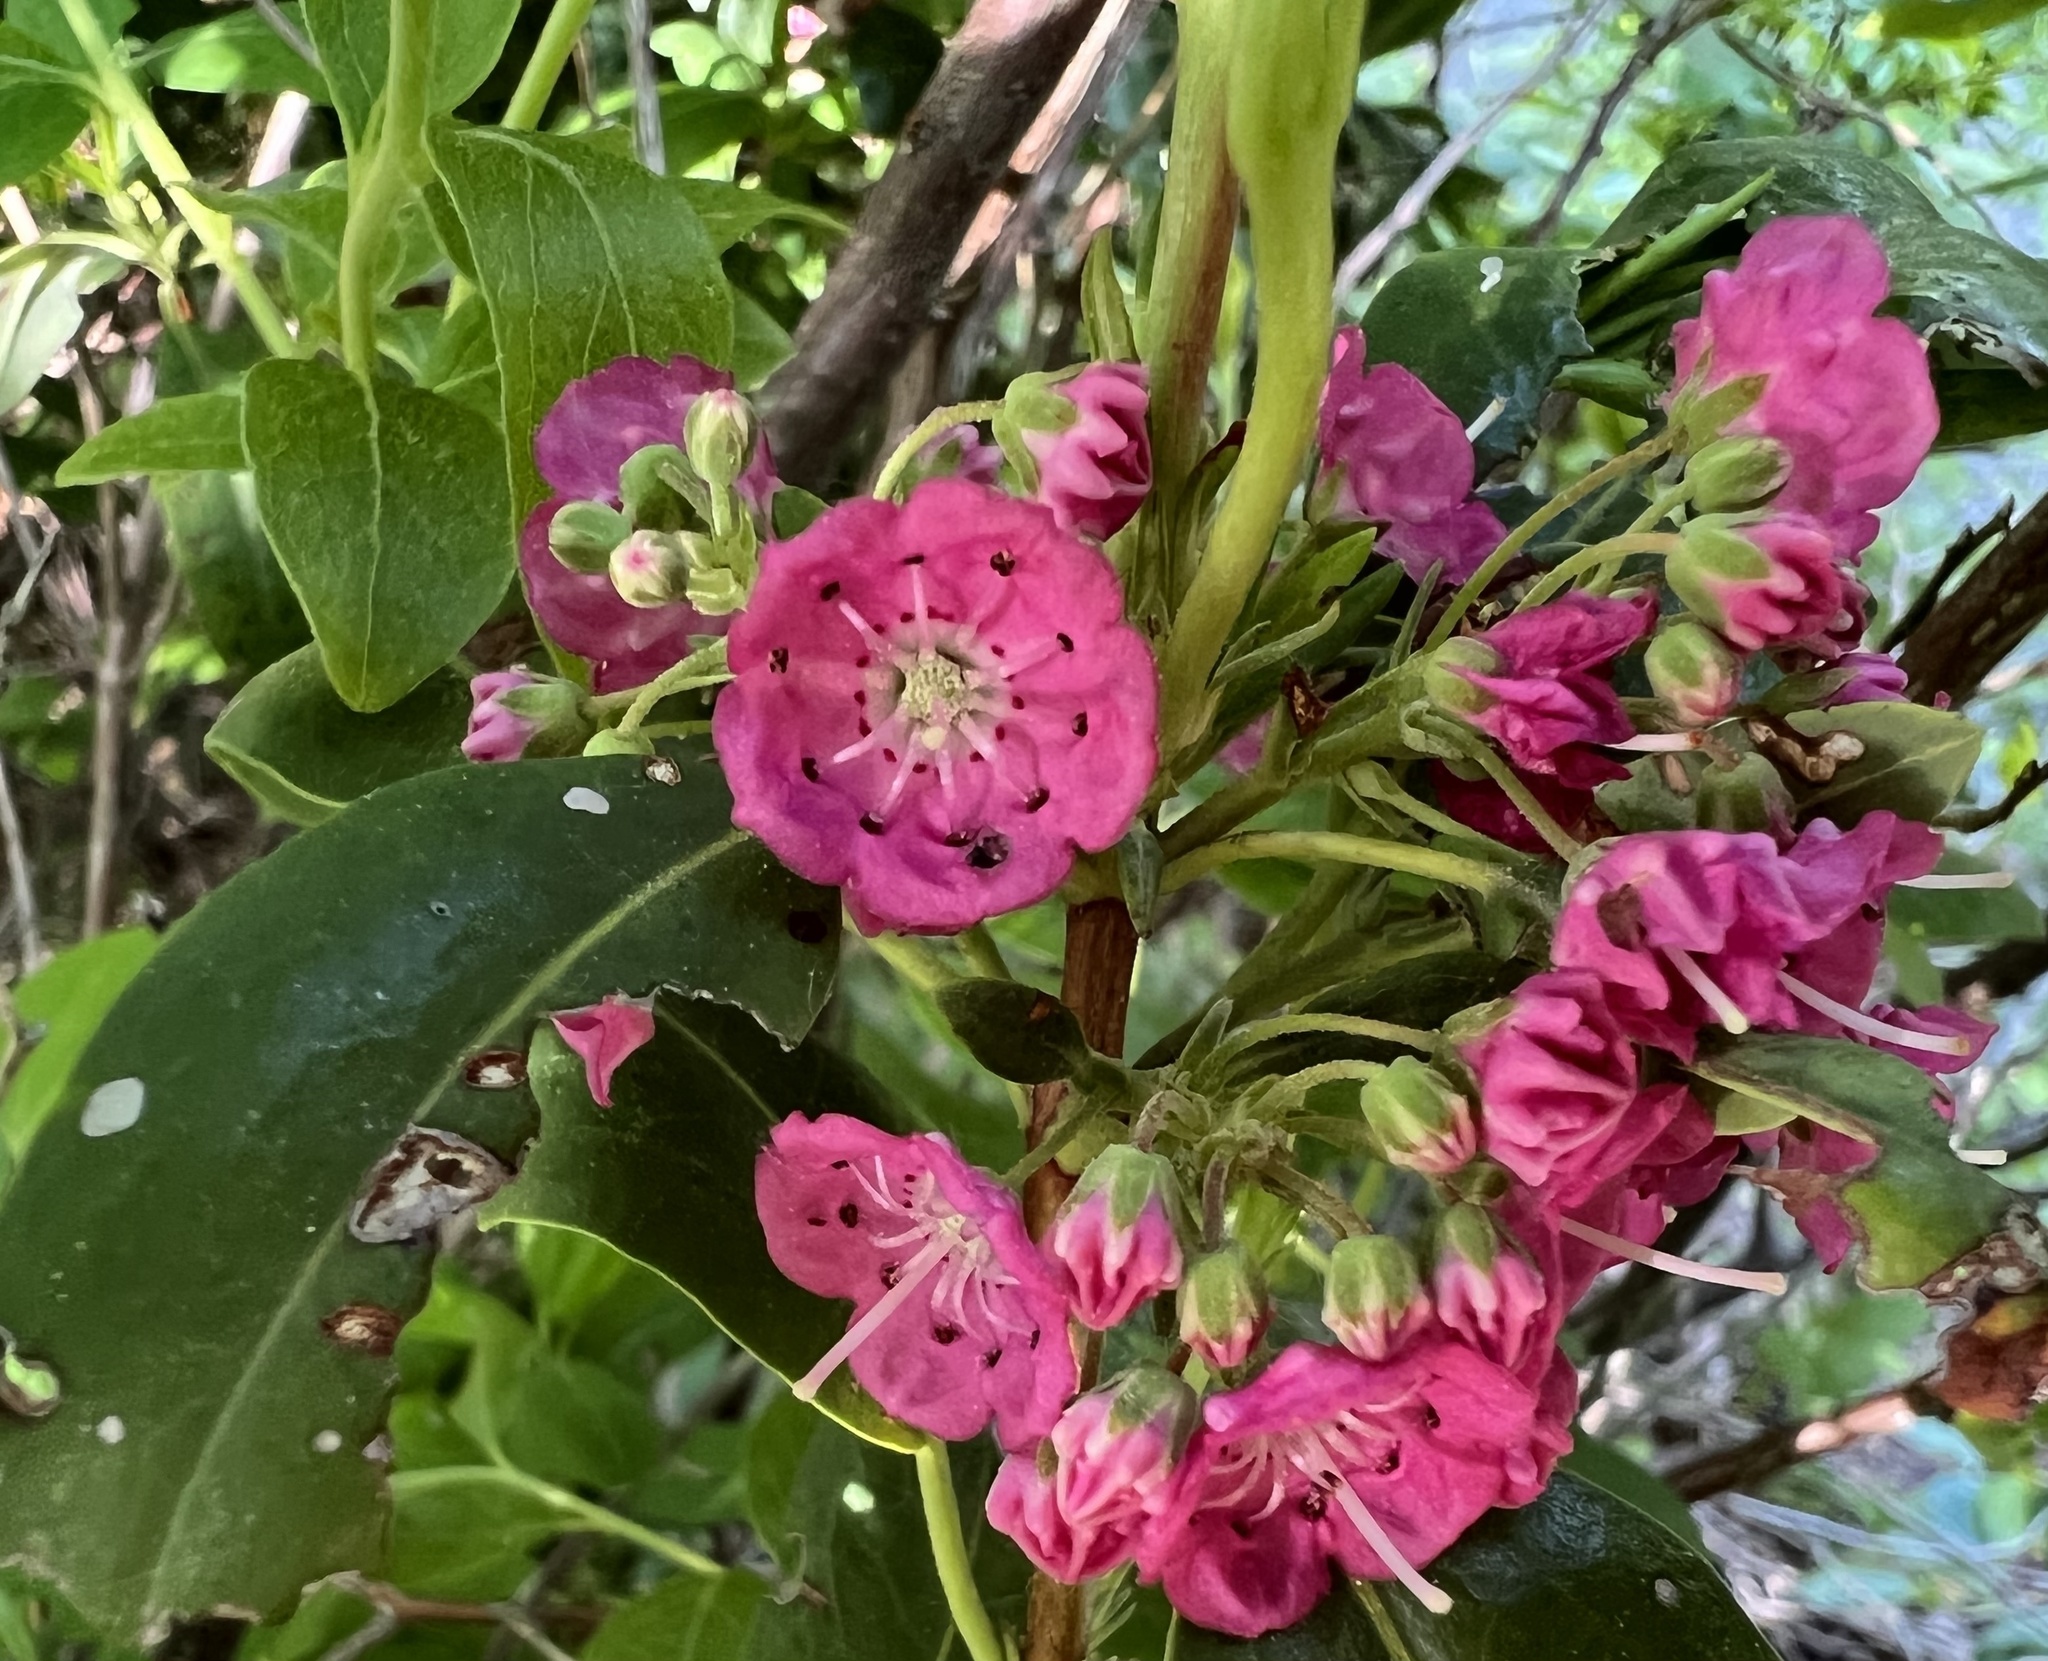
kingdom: Plantae
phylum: Tracheophyta
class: Magnoliopsida
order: Ericales
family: Ericaceae
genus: Kalmia
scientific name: Kalmia angustifolia
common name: Sheep-laurel
